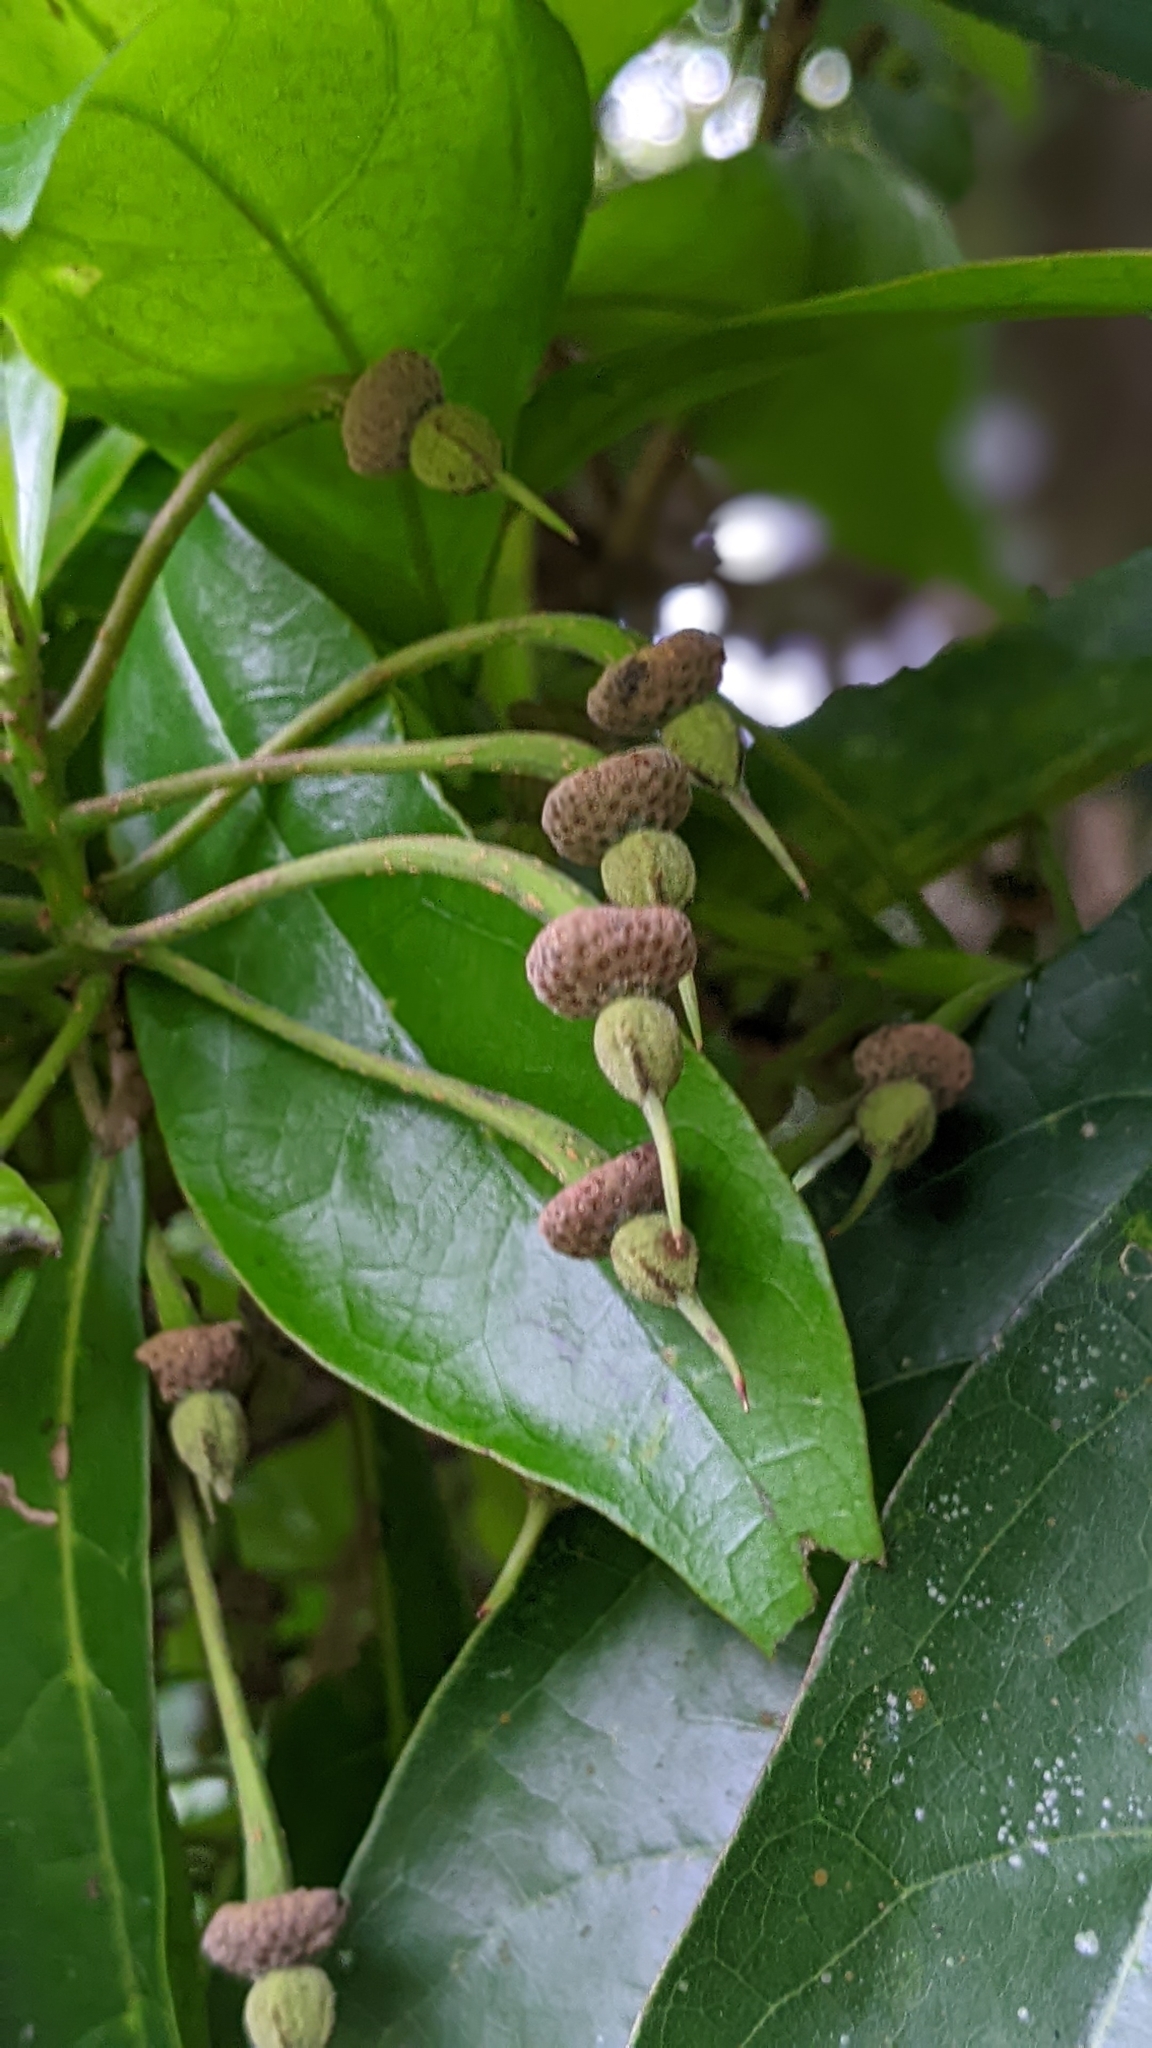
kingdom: Plantae
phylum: Tracheophyta
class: Magnoliopsida
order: Oxalidales
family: Elaeocarpaceae
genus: Sloanea
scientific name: Sloanea dasycarpa
